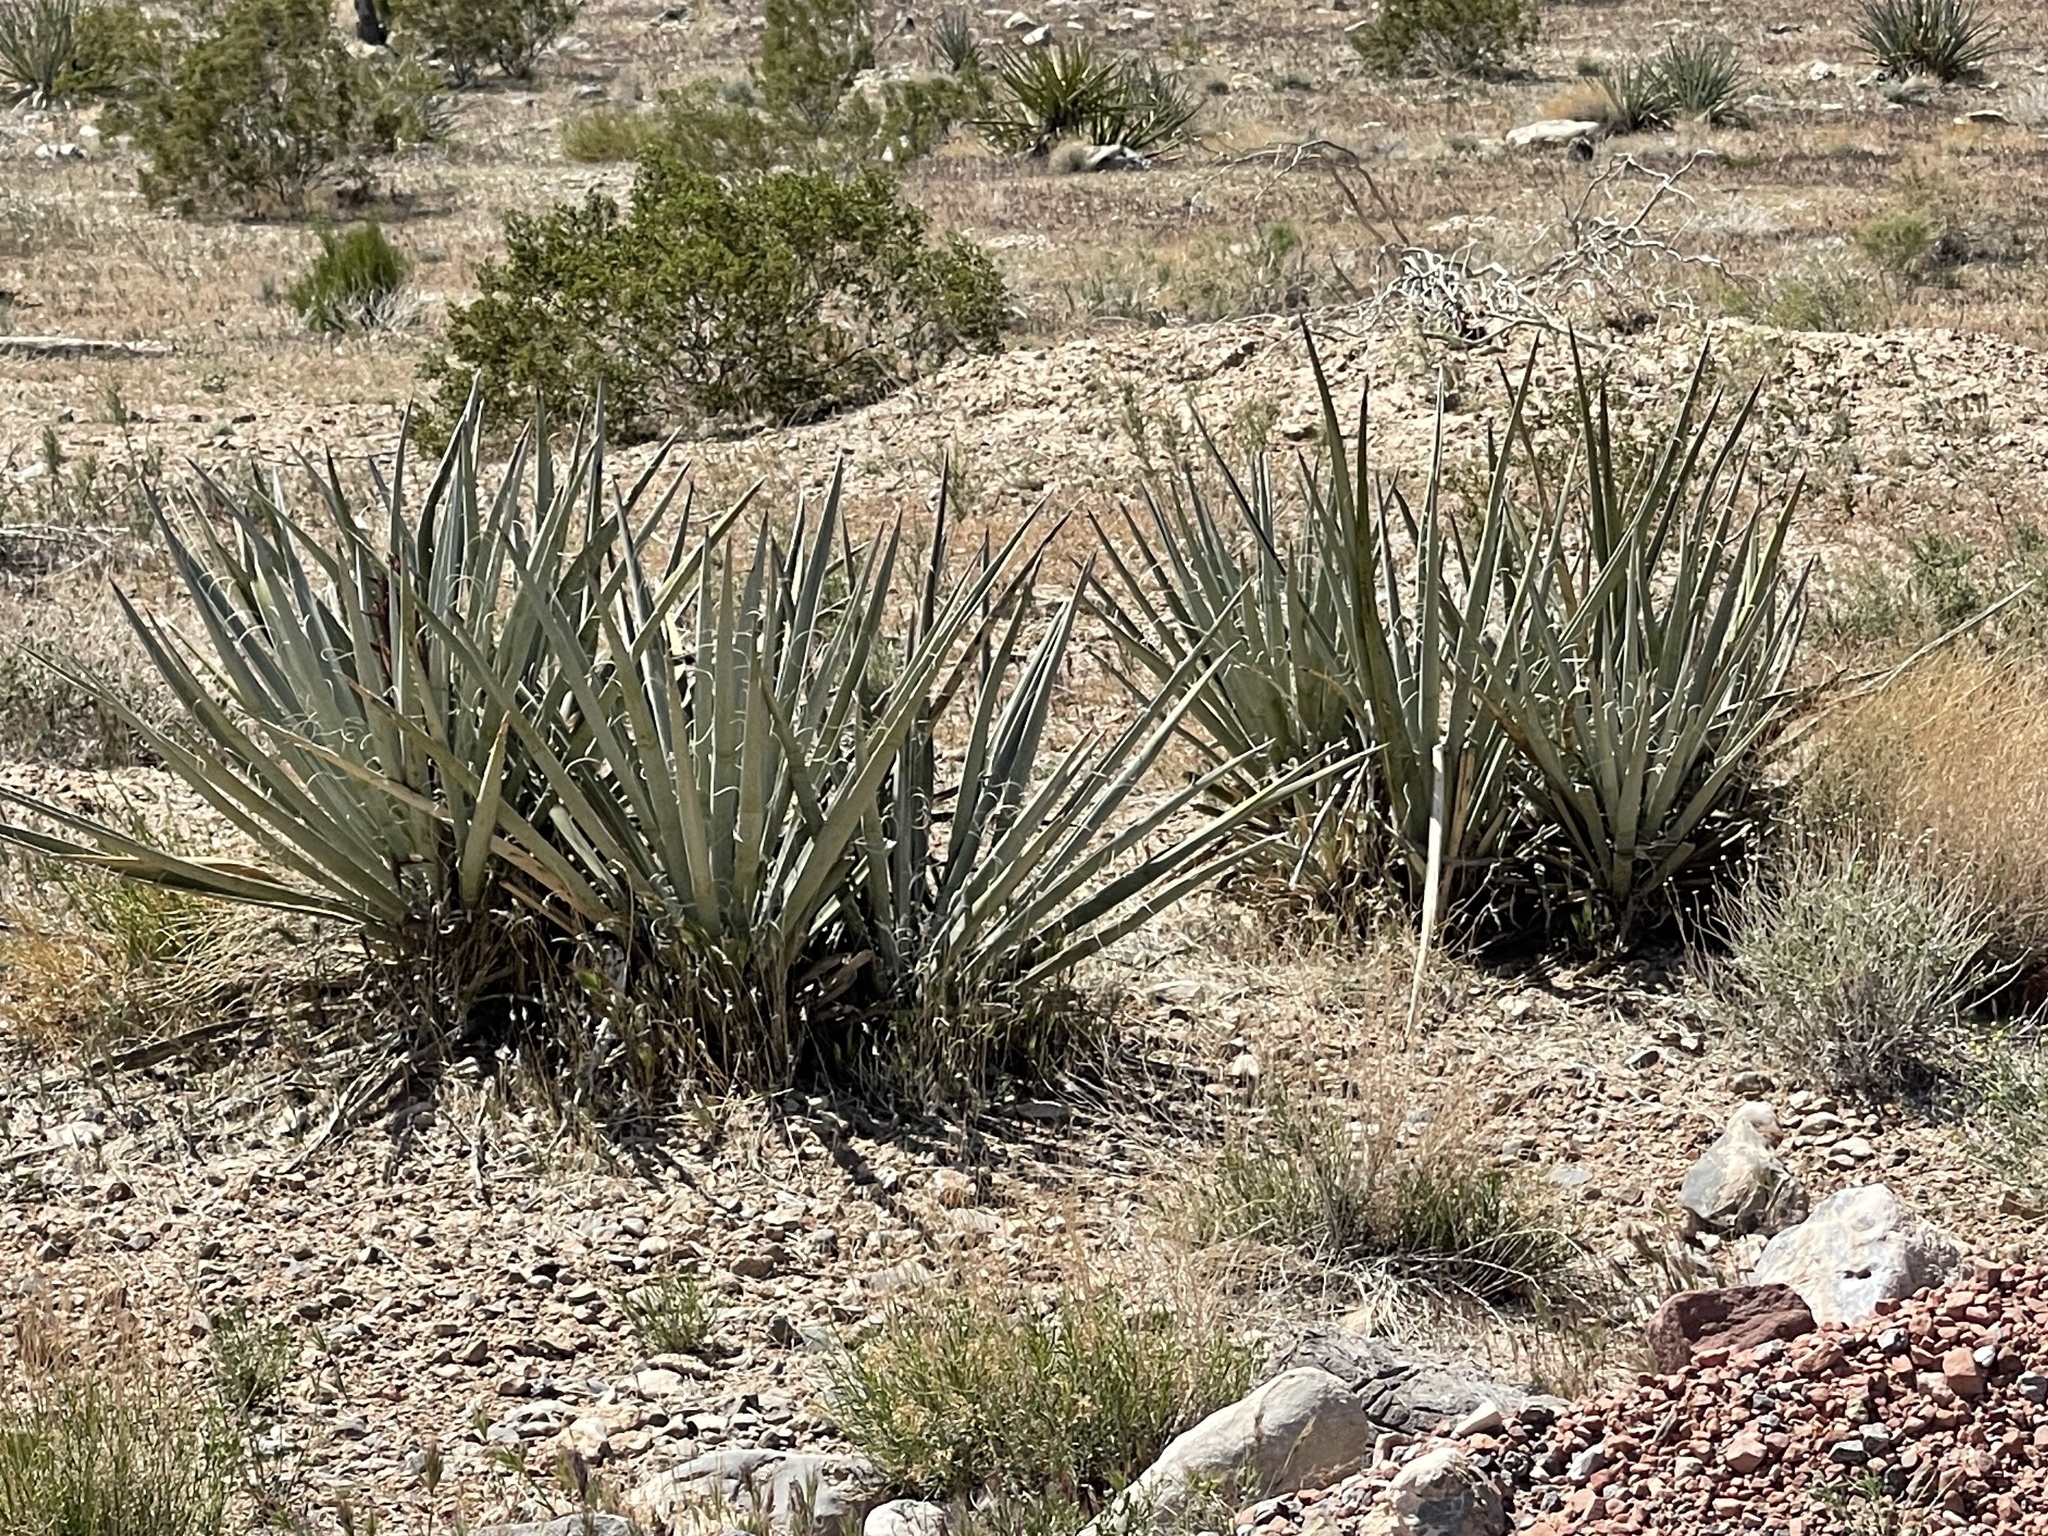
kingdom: Plantae
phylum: Tracheophyta
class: Liliopsida
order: Asparagales
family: Asparagaceae
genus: Yucca
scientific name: Yucca baccata
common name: Banana yucca
